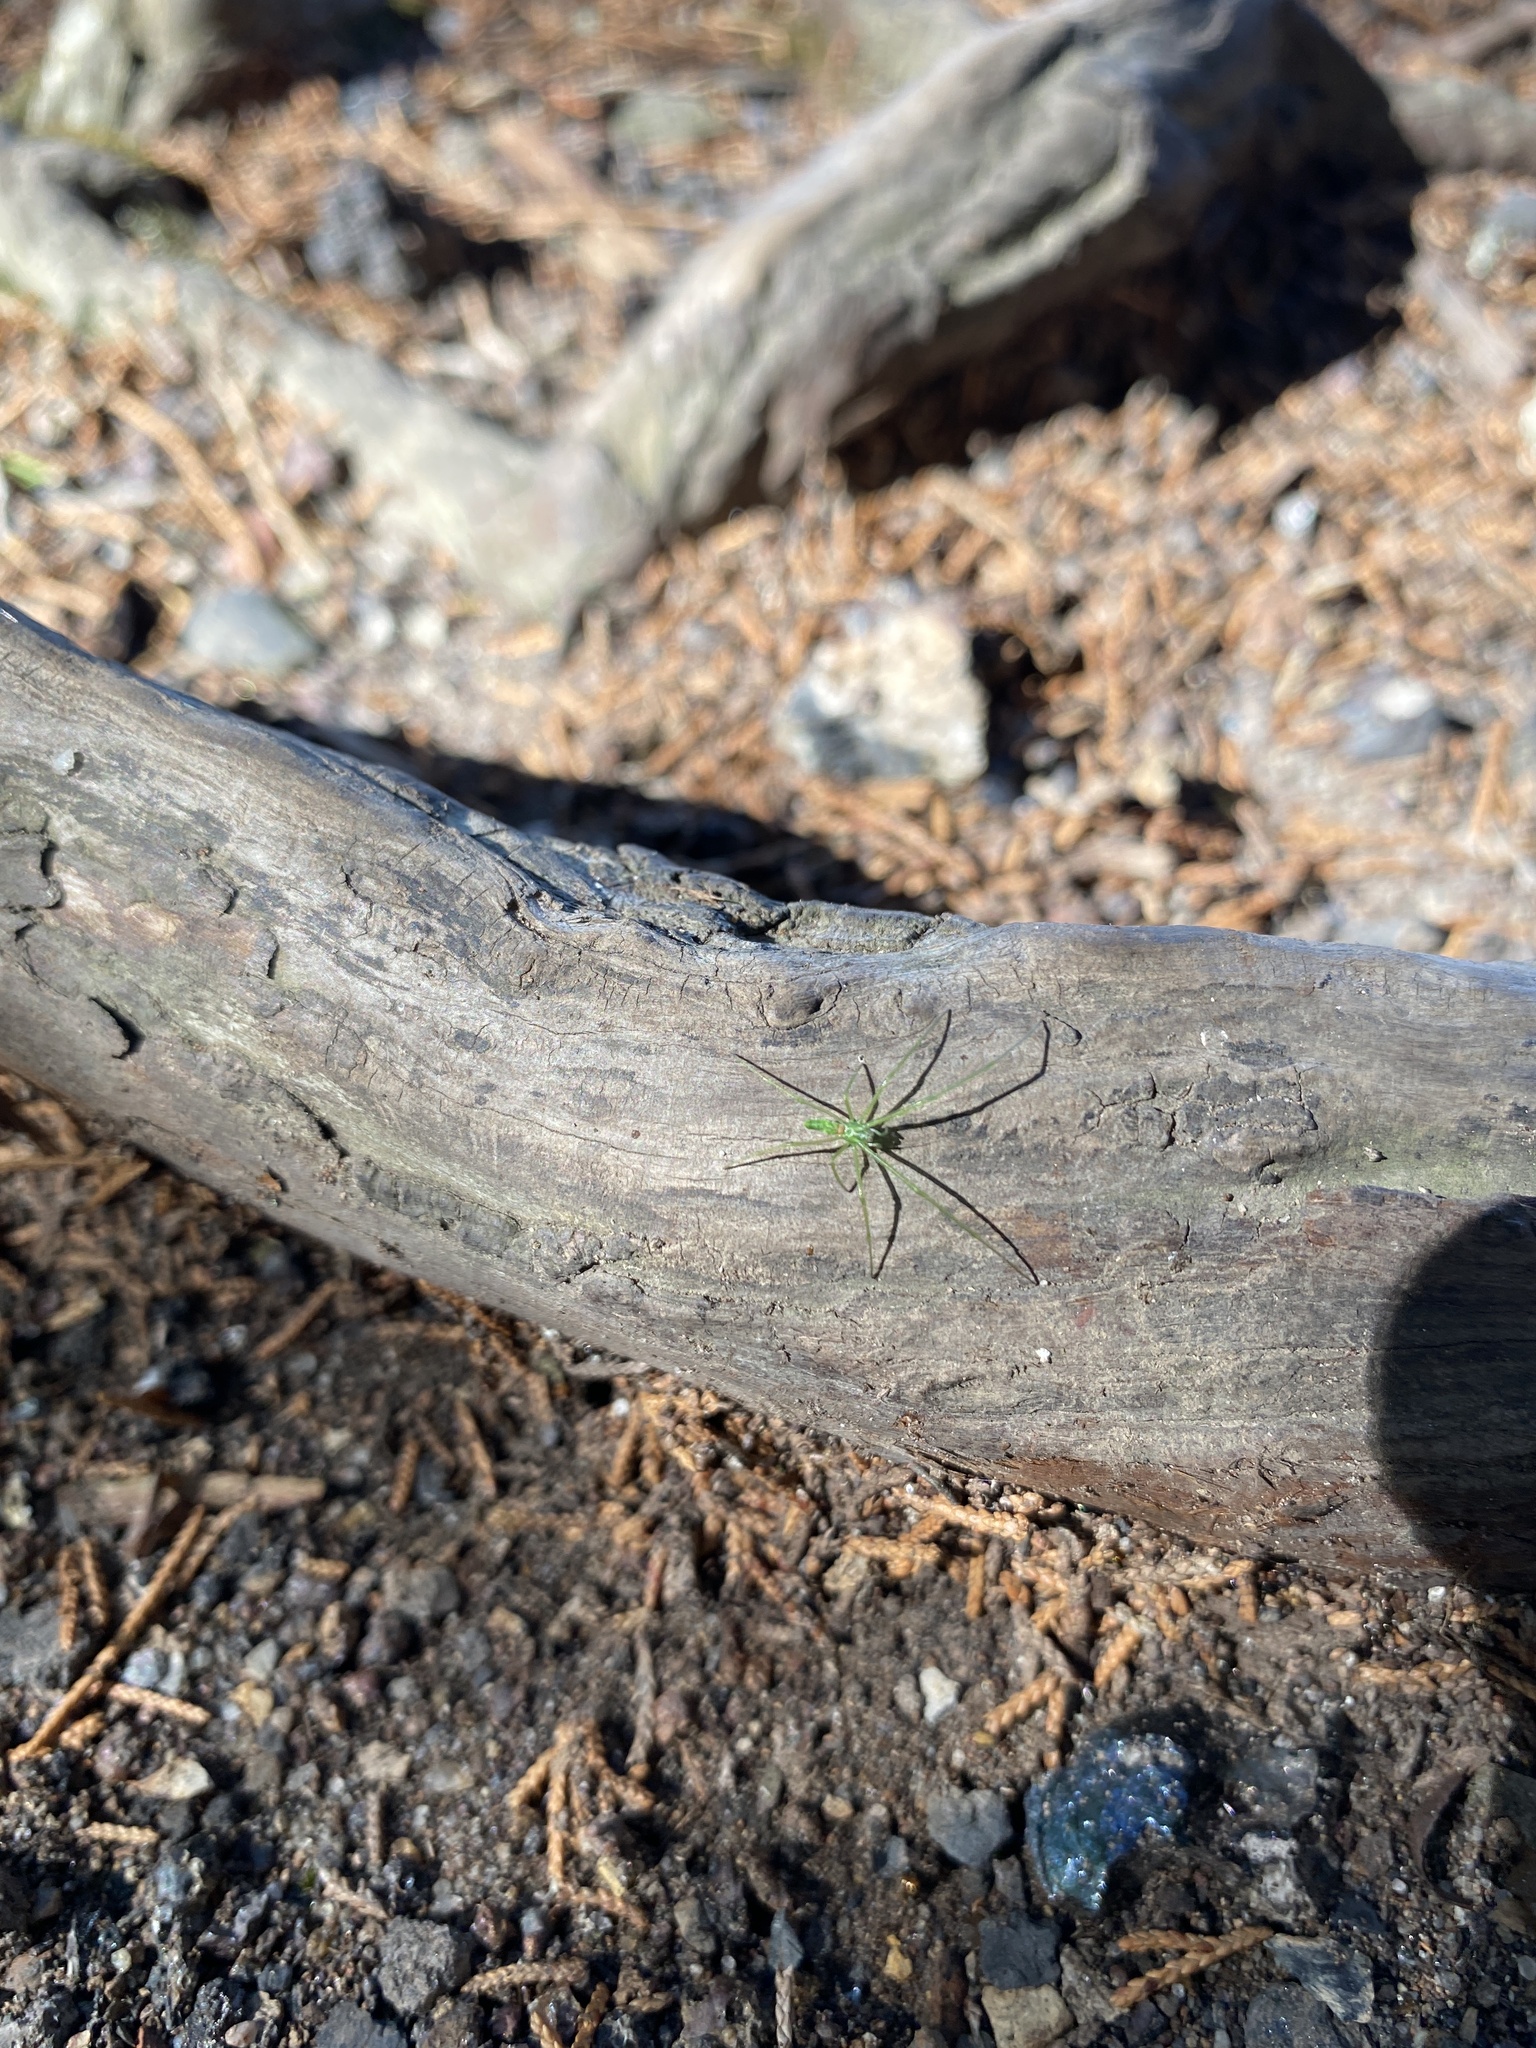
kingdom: Animalia
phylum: Arthropoda
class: Arachnida
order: Araneae
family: Tetragnathidae
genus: Tetragnatha
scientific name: Tetragnatha viridis
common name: Green long-jawed spider
